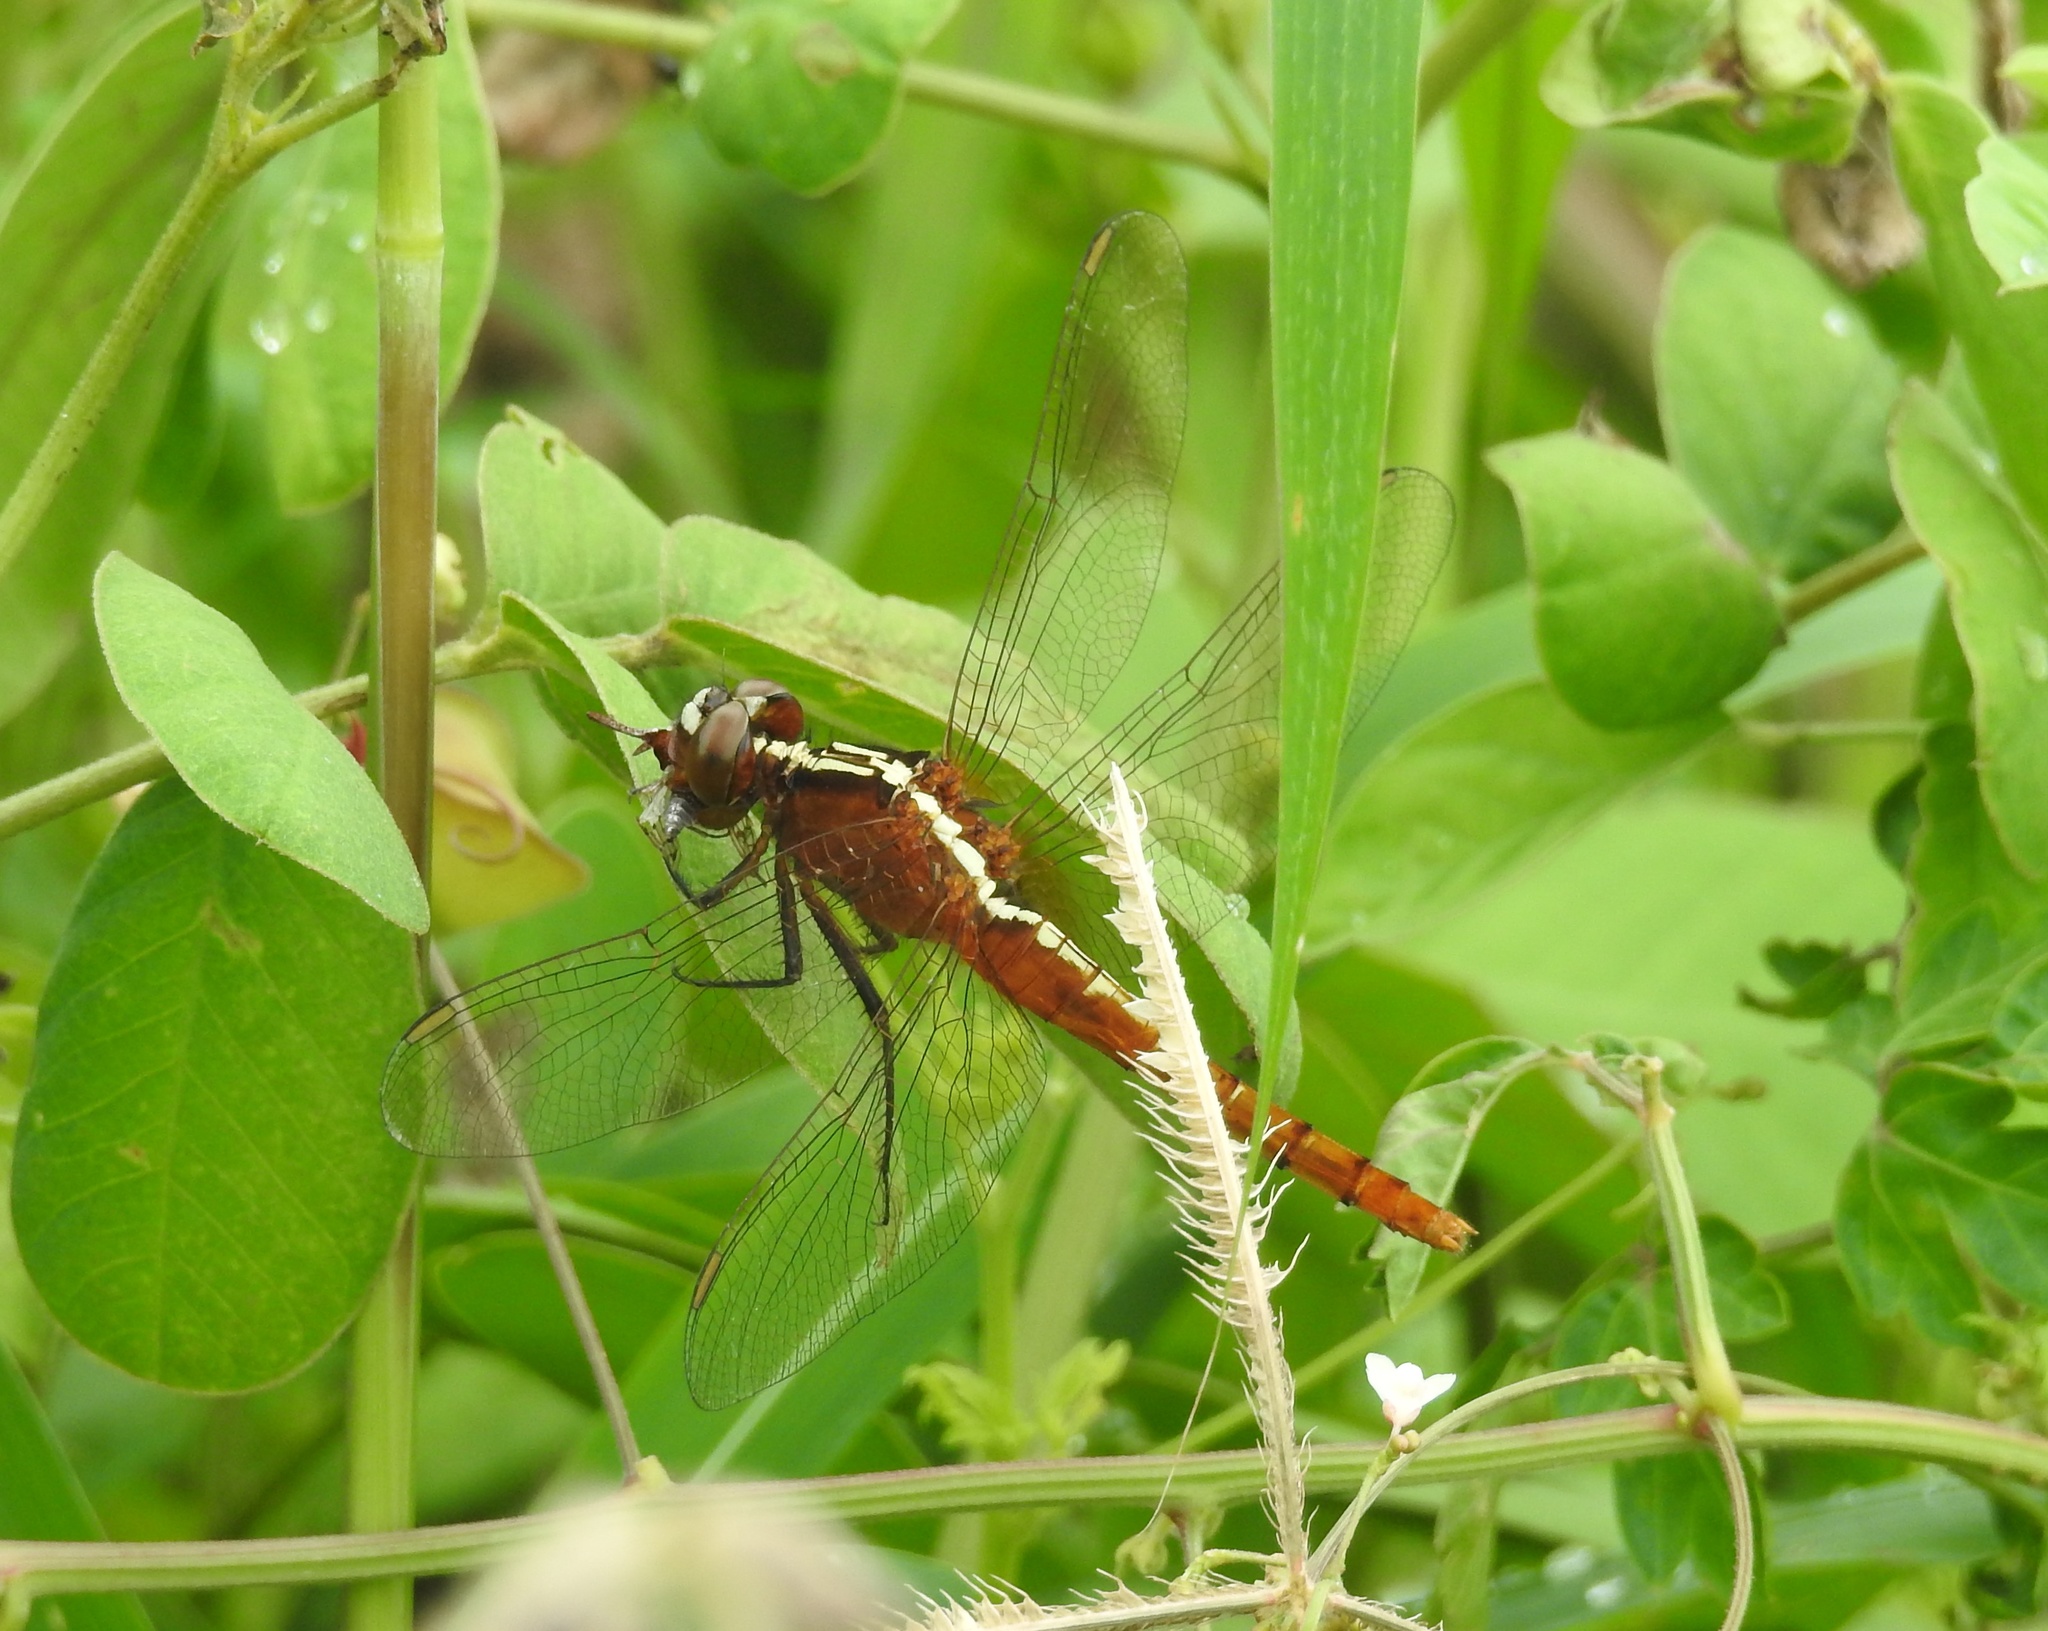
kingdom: Animalia
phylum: Arthropoda
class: Insecta
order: Odonata
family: Libellulidae
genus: Rhodothemis
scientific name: Rhodothemis rufa
